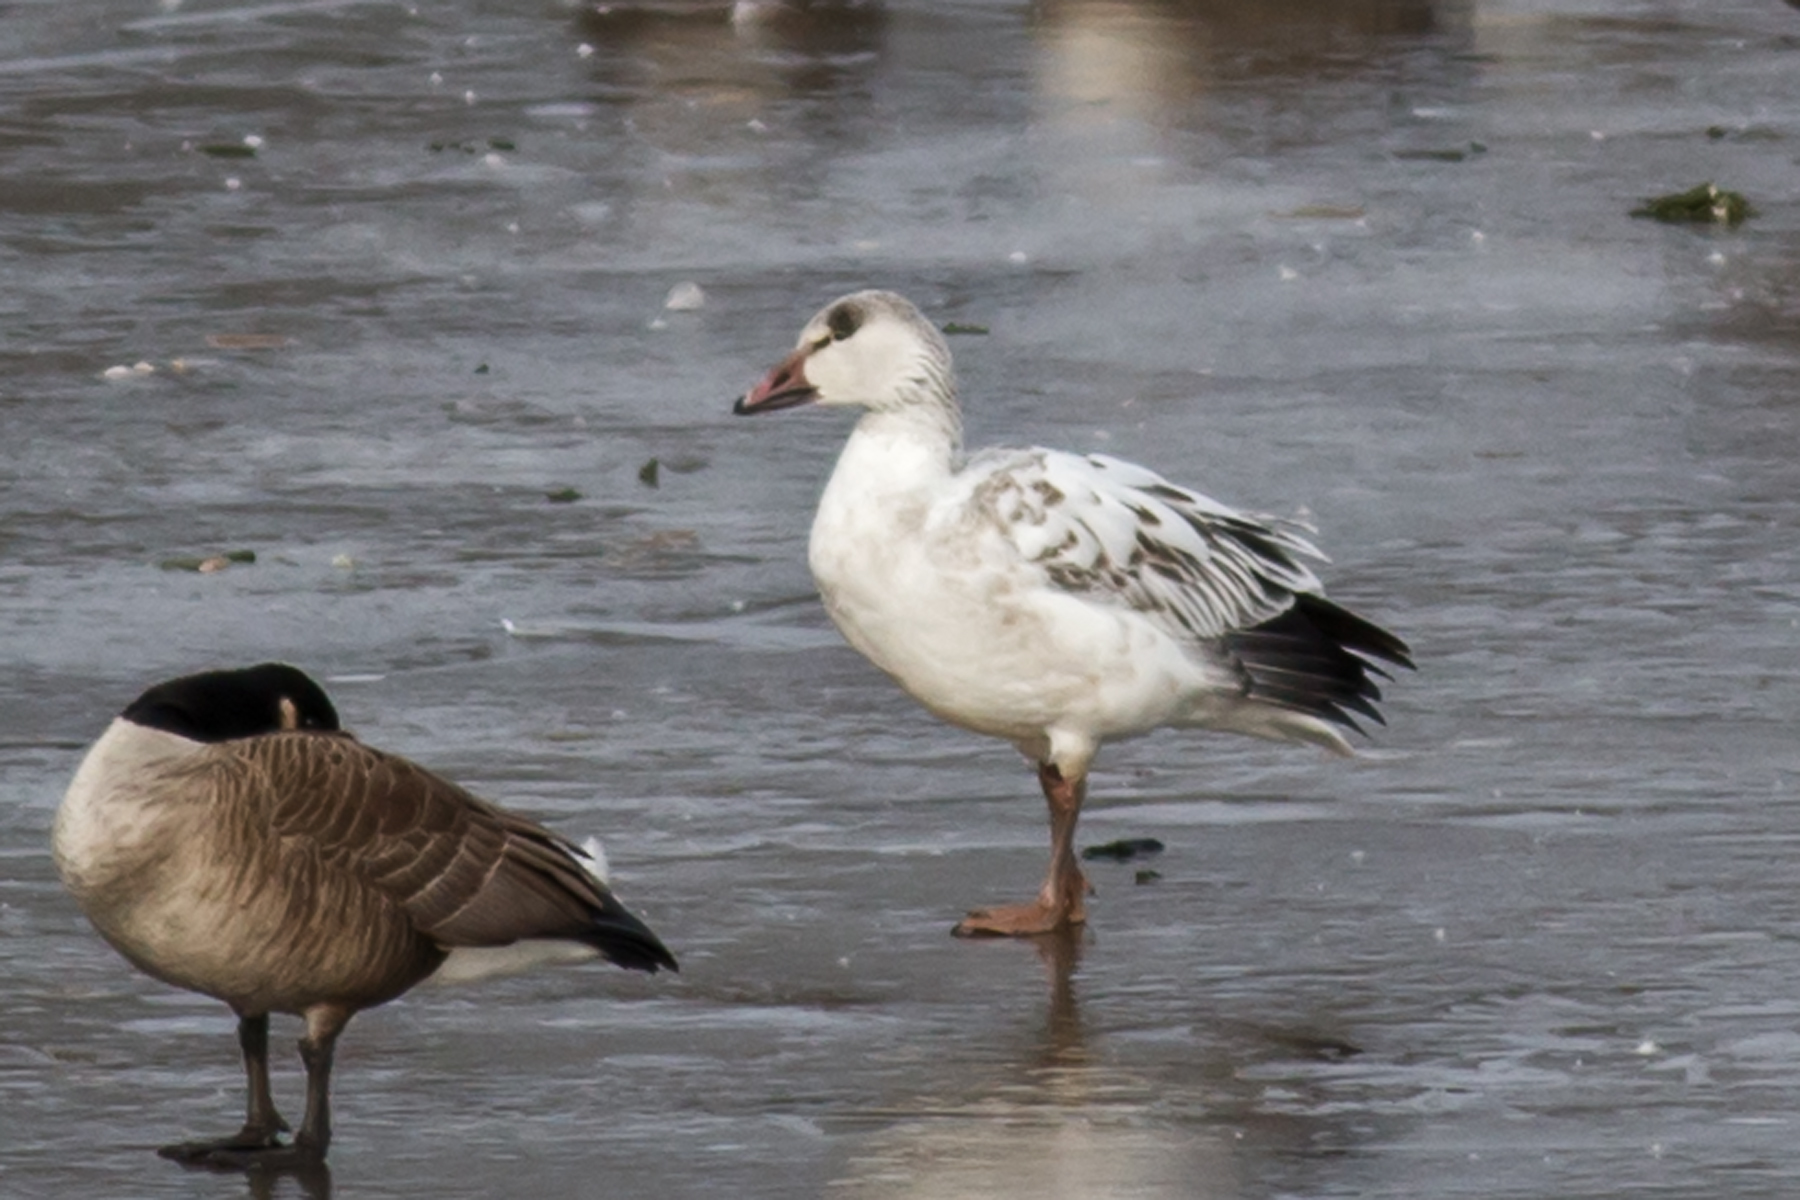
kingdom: Animalia
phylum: Chordata
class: Aves
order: Anseriformes
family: Anatidae
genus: Anser
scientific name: Anser caerulescens
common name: Snow goose
